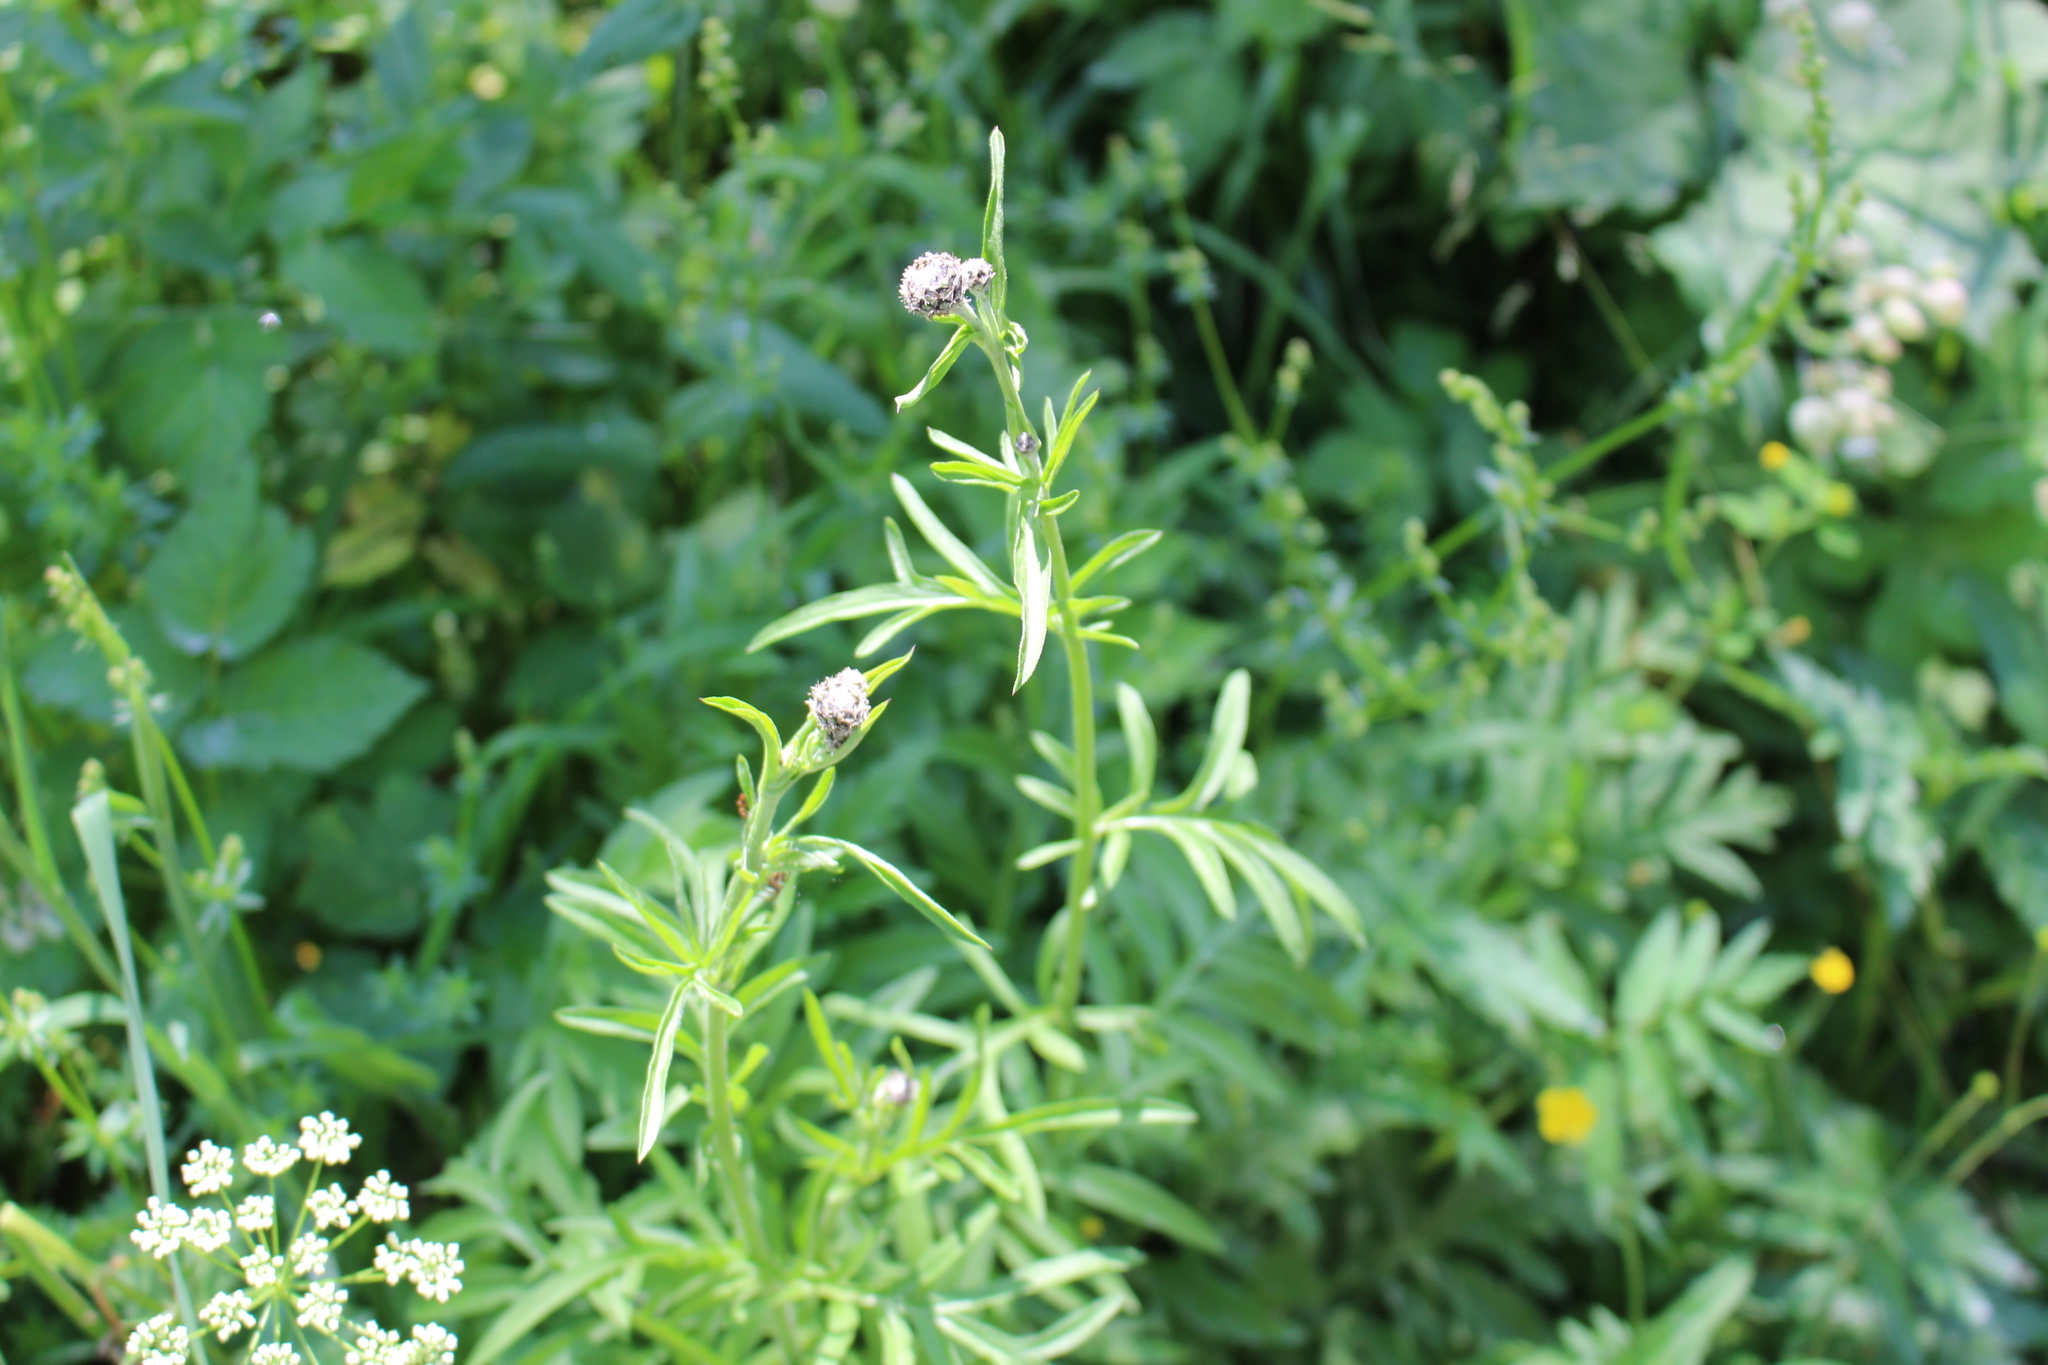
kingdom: Plantae
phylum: Tracheophyta
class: Magnoliopsida
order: Asterales
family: Asteraceae
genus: Centaurea
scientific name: Centaurea scabiosa
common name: Greater knapweed
